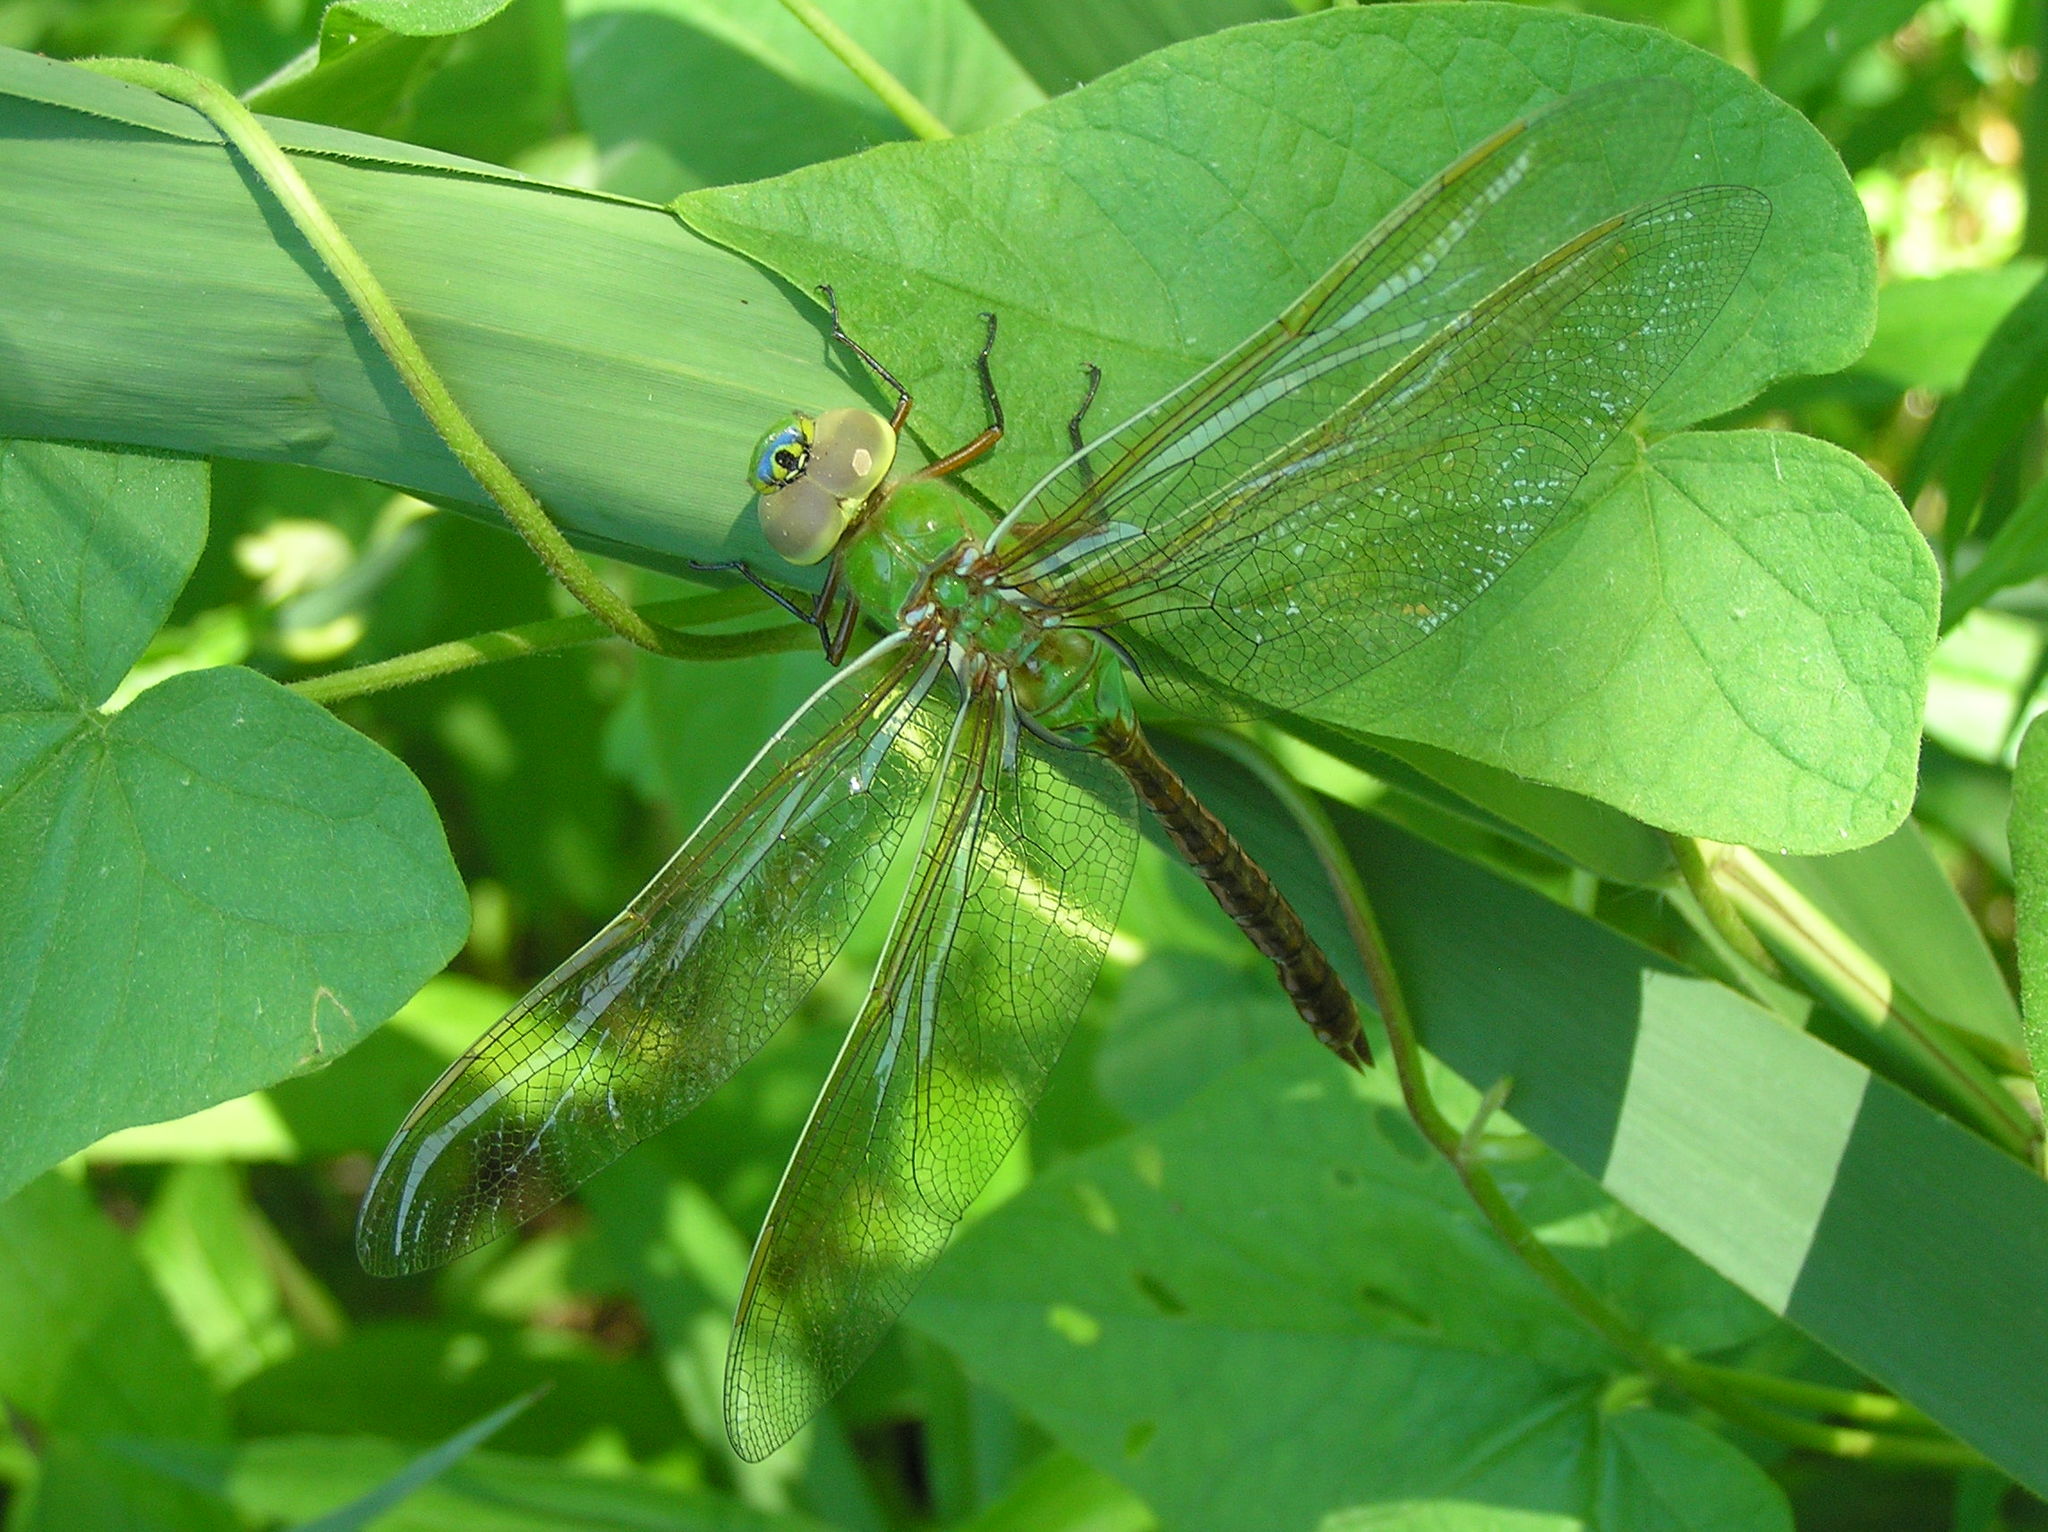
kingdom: Animalia
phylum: Arthropoda
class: Insecta
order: Odonata
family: Aeshnidae
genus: Anax
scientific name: Anax junius
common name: Common green darner
